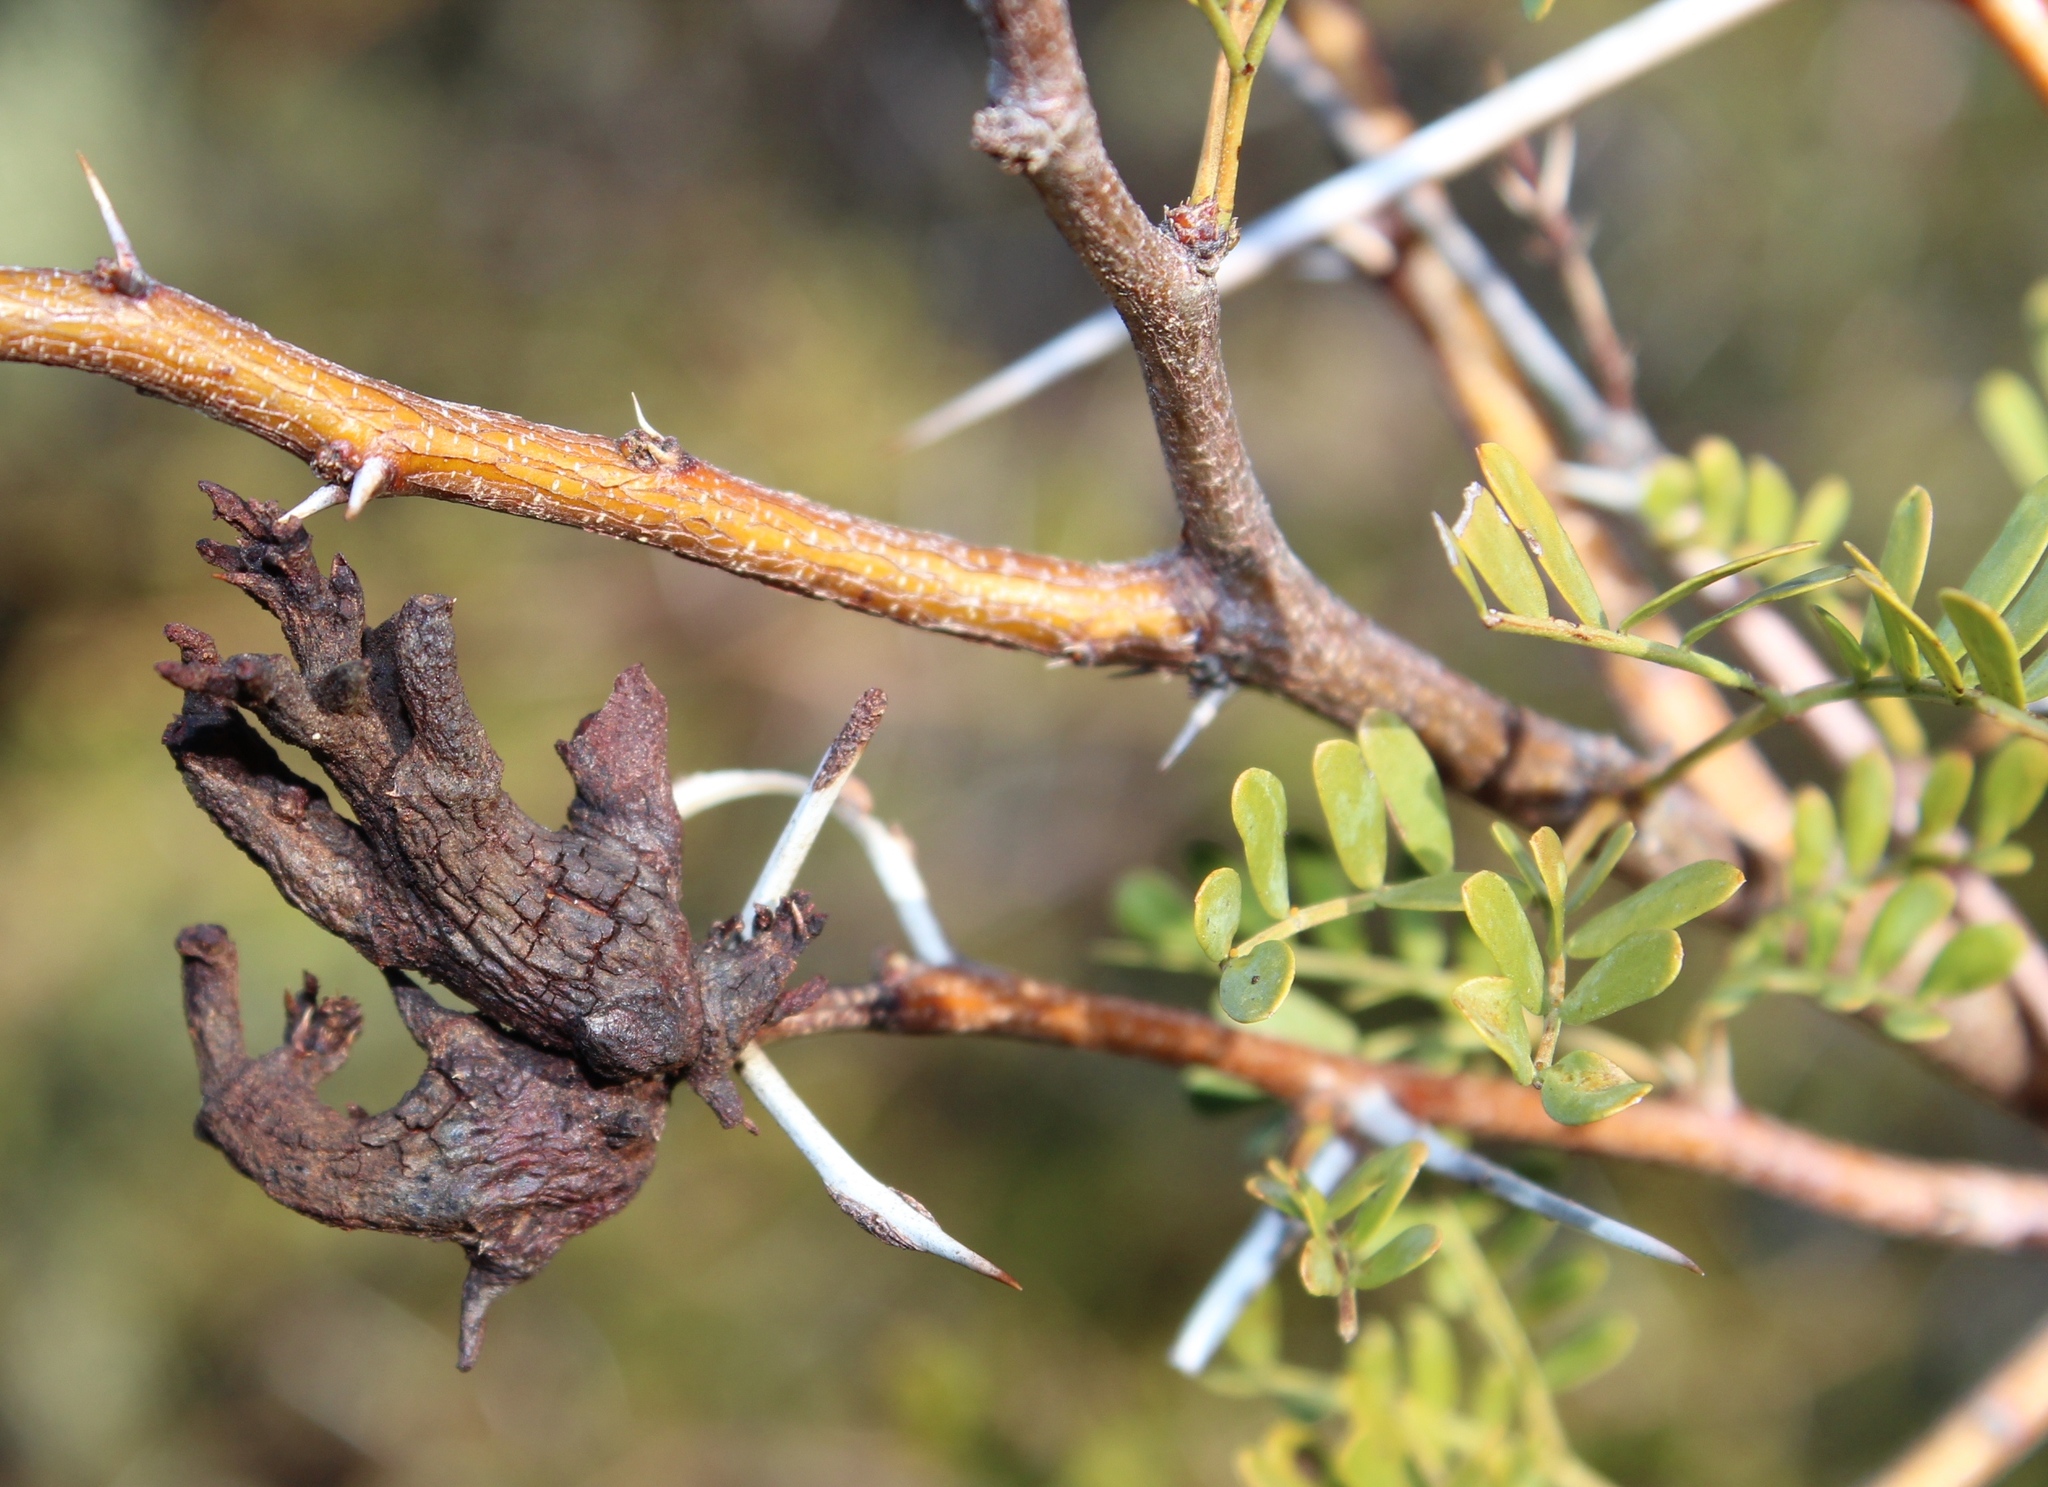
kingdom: Fungi
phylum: Basidiomycota
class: Pucciniomycetes
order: Pucciniales
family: Raveneliaceae
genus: Cephalotelium
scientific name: Cephalotelium macowanianum
